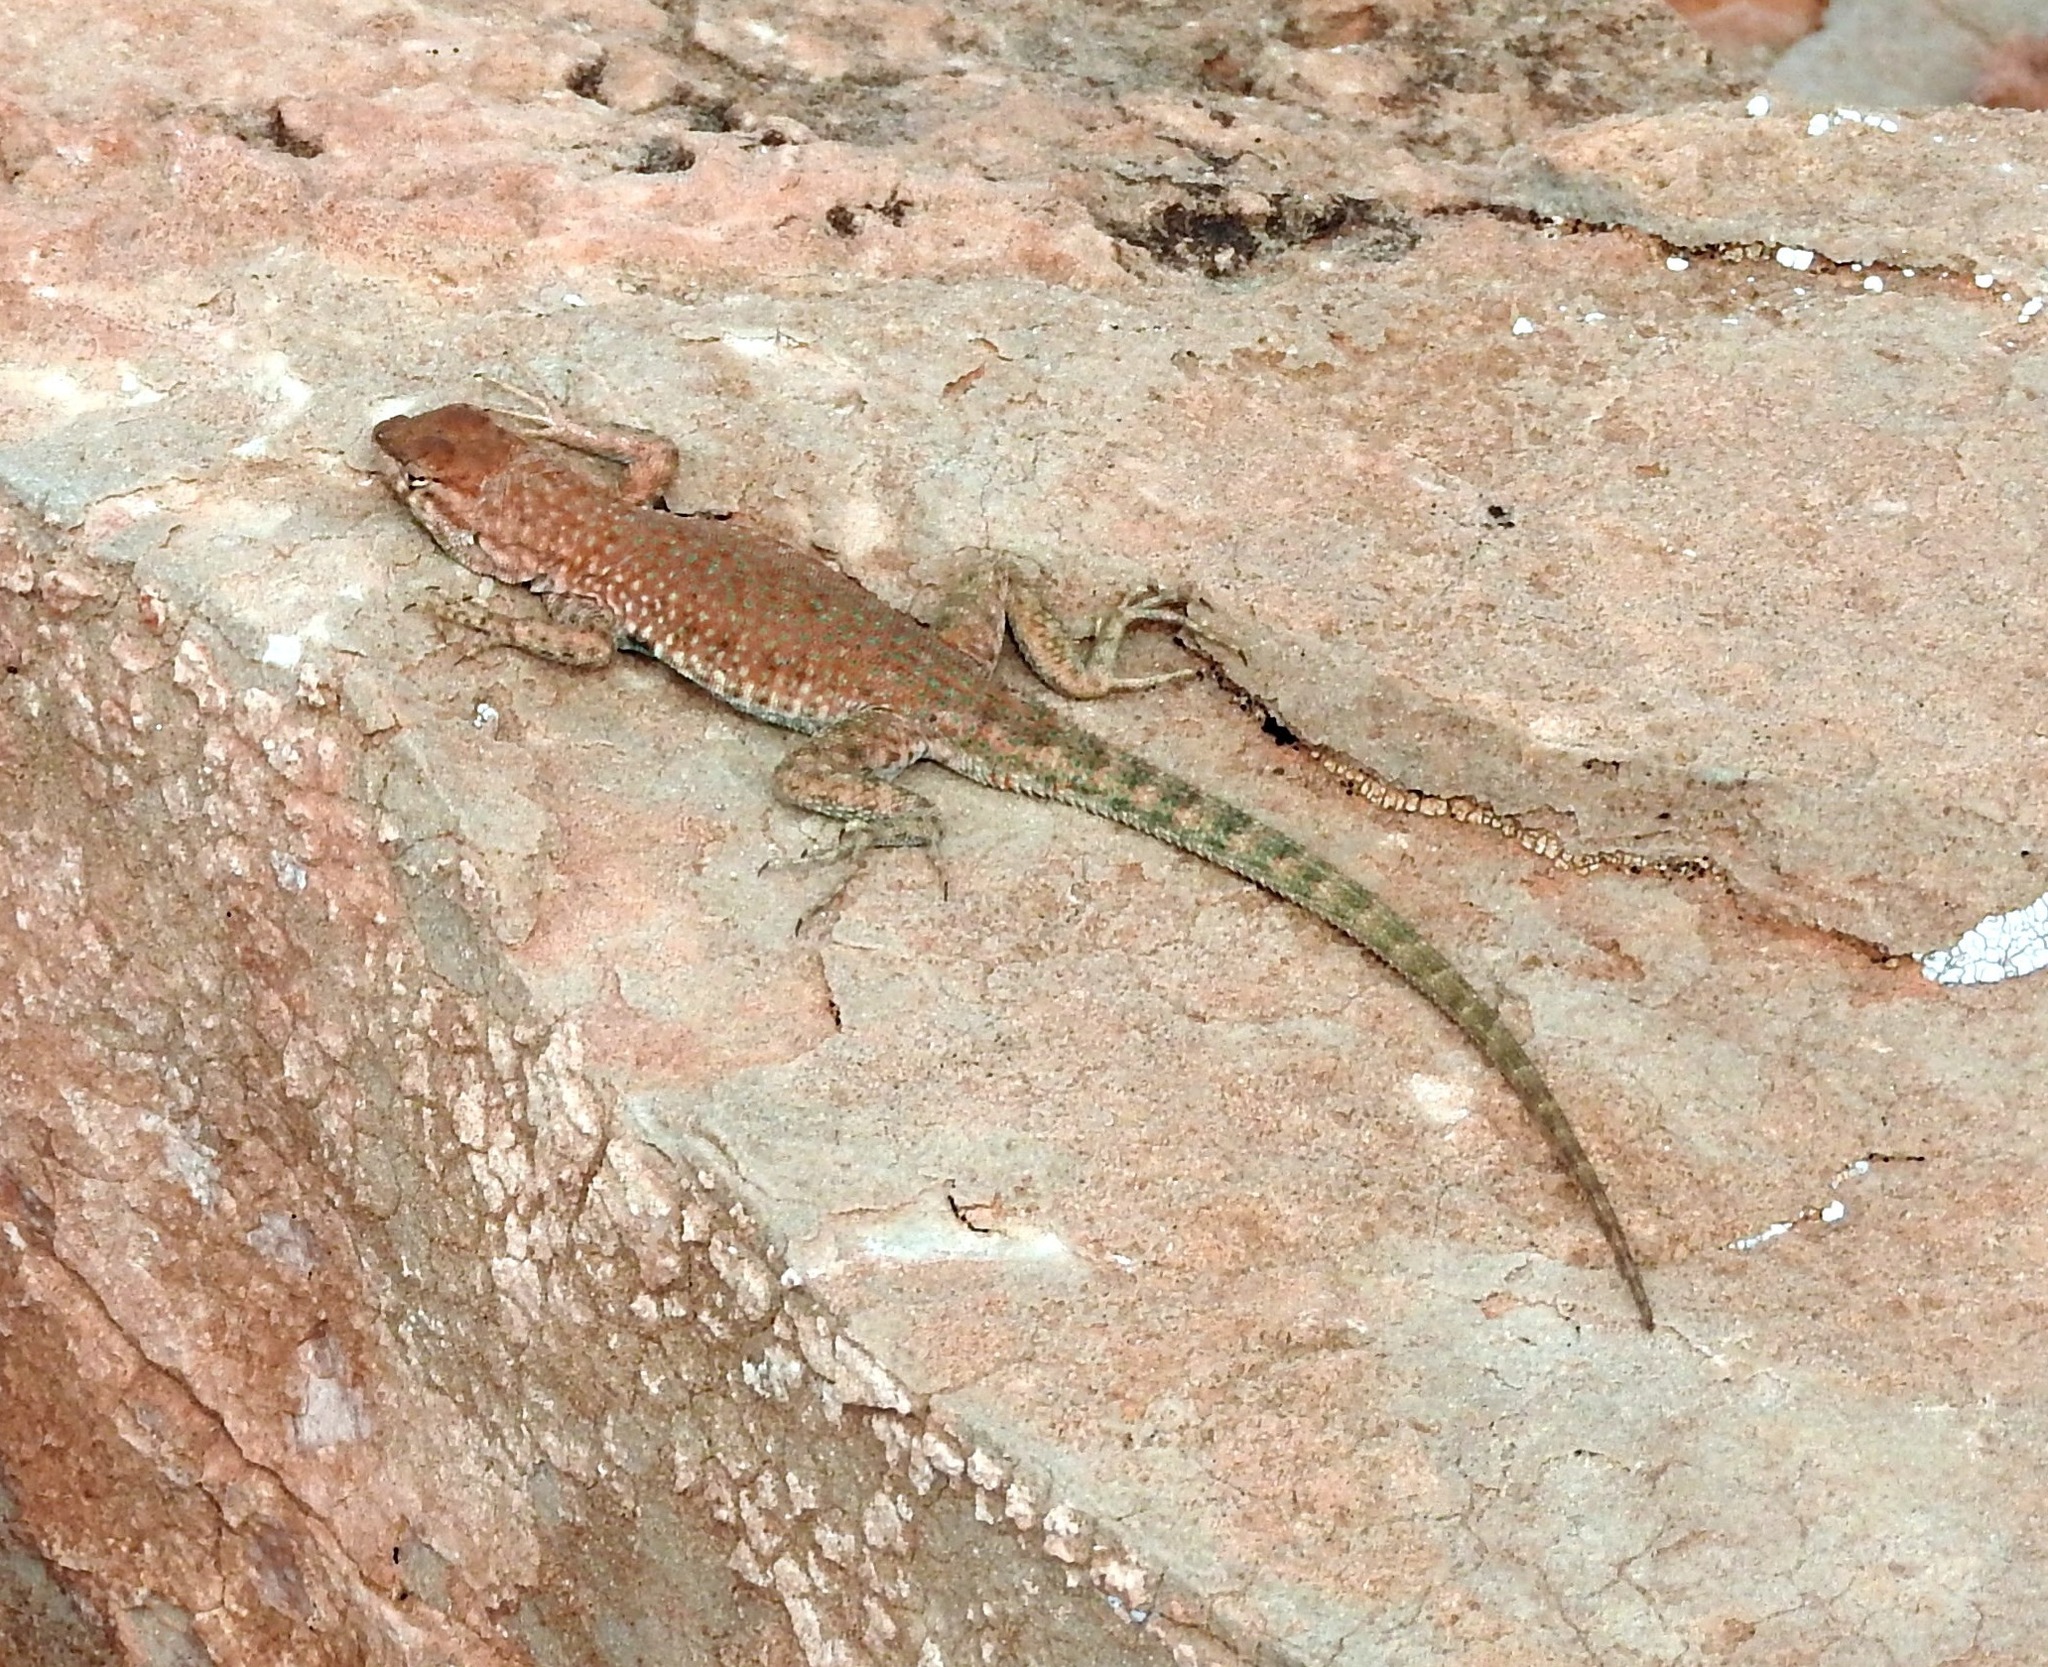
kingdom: Animalia
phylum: Chordata
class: Squamata
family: Phrynosomatidae
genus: Uta
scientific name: Uta stansburiana
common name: Side-blotched lizard
